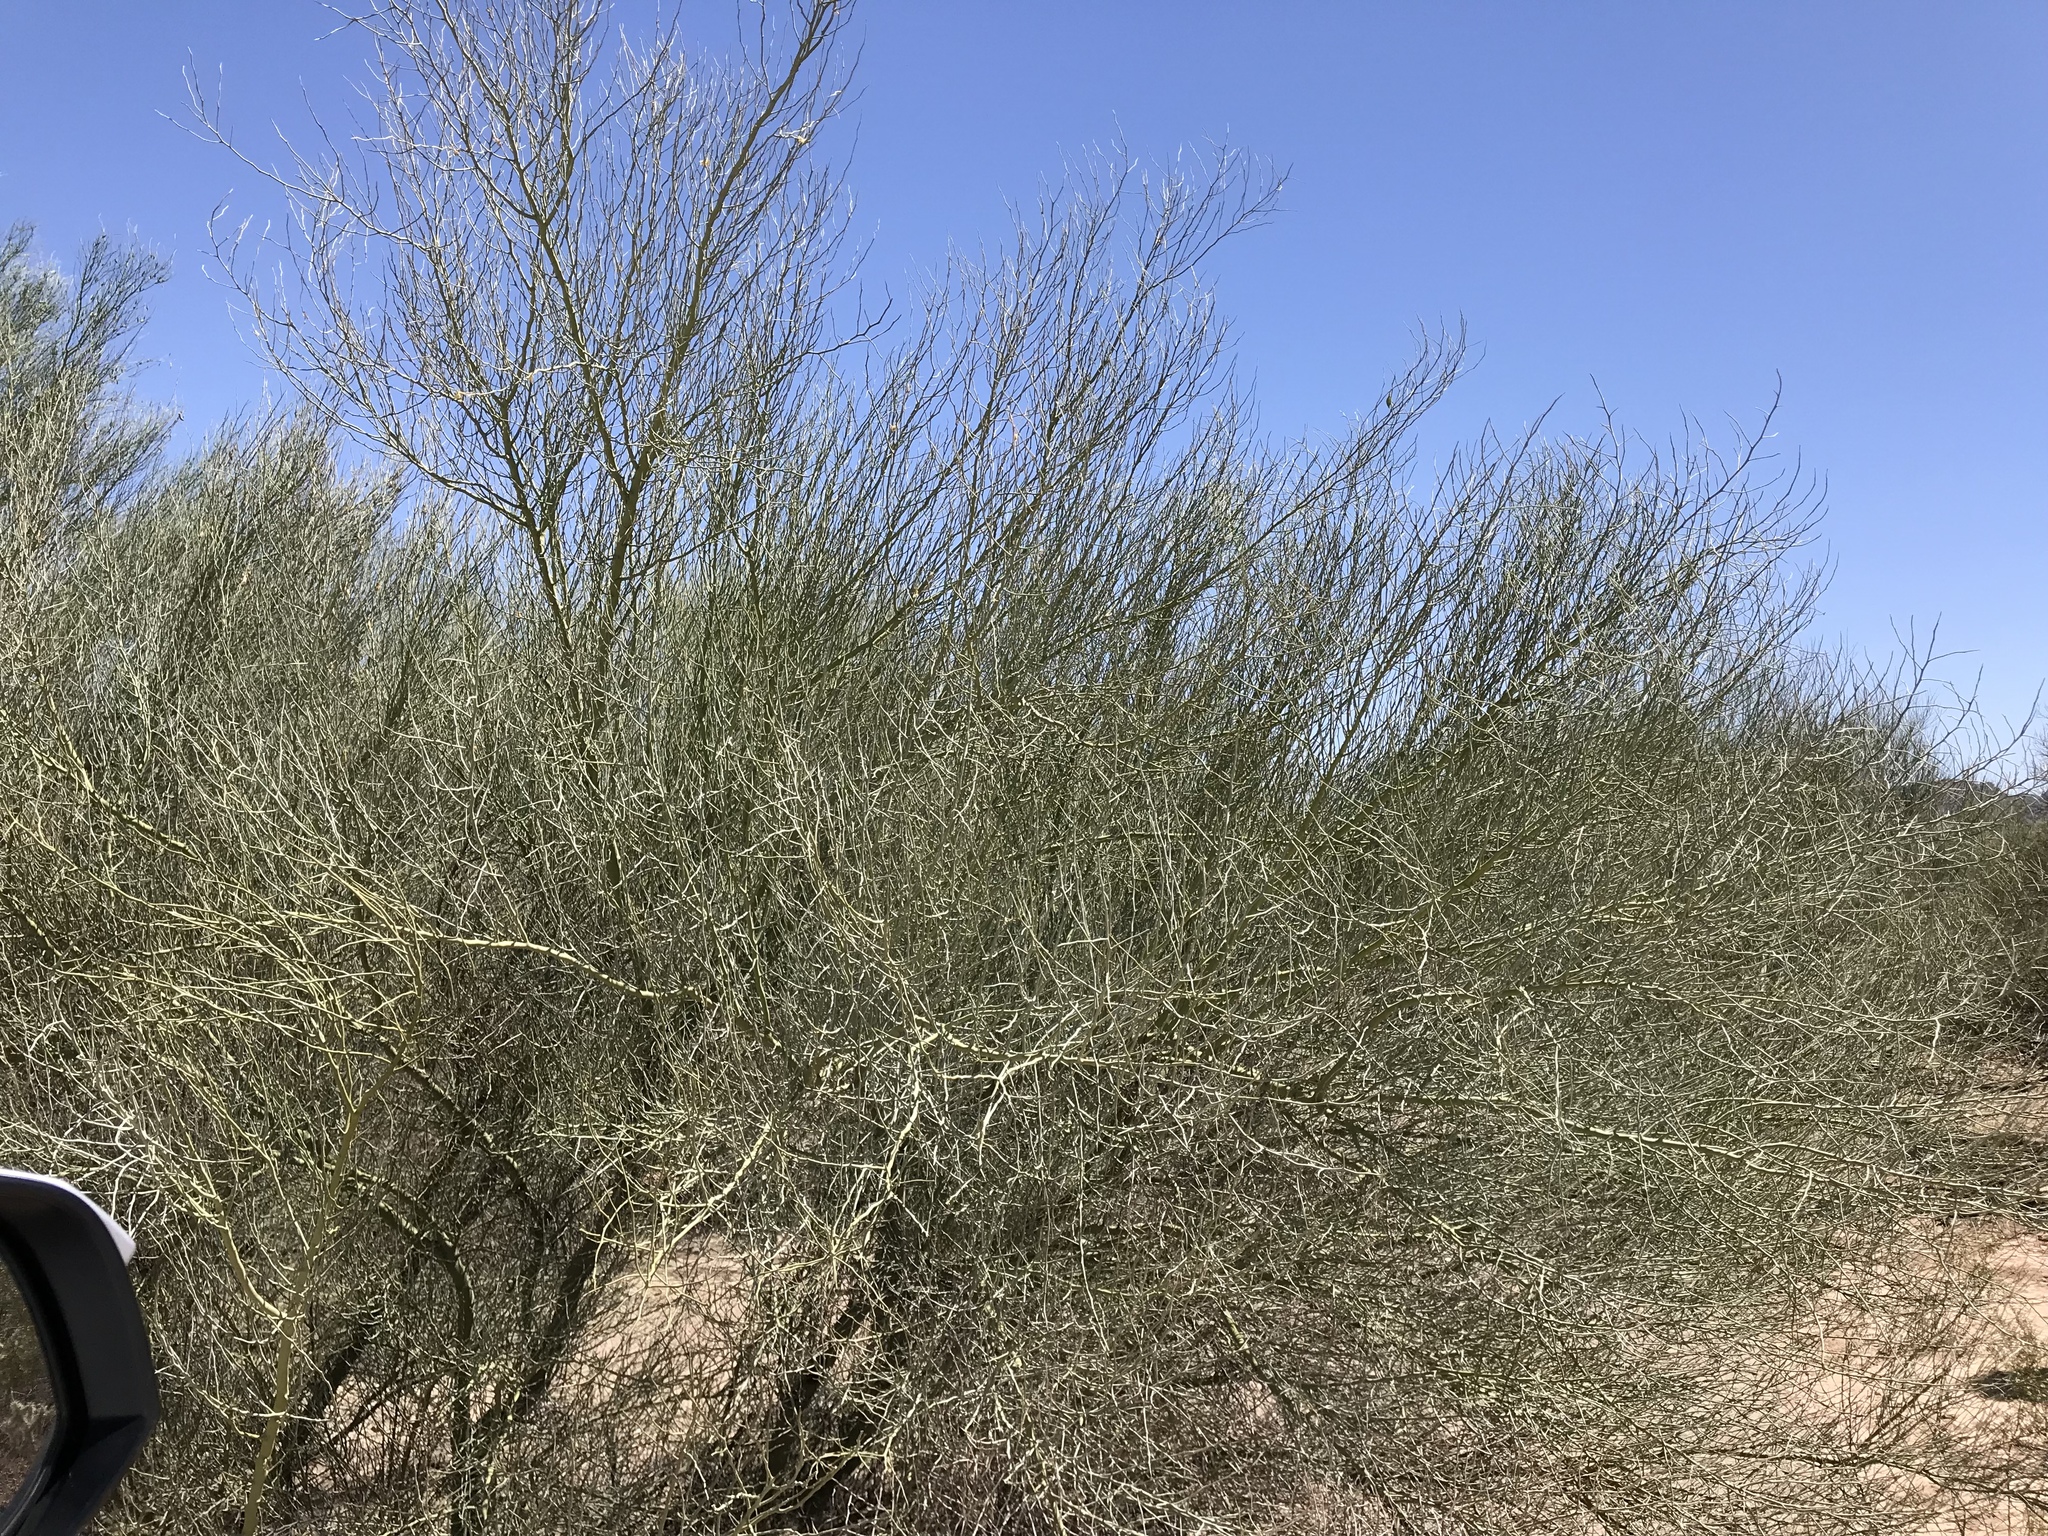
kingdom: Plantae
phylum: Tracheophyta
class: Magnoliopsida
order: Fabales
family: Fabaceae
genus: Parkinsonia
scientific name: Parkinsonia florida
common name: Blue paloverde
